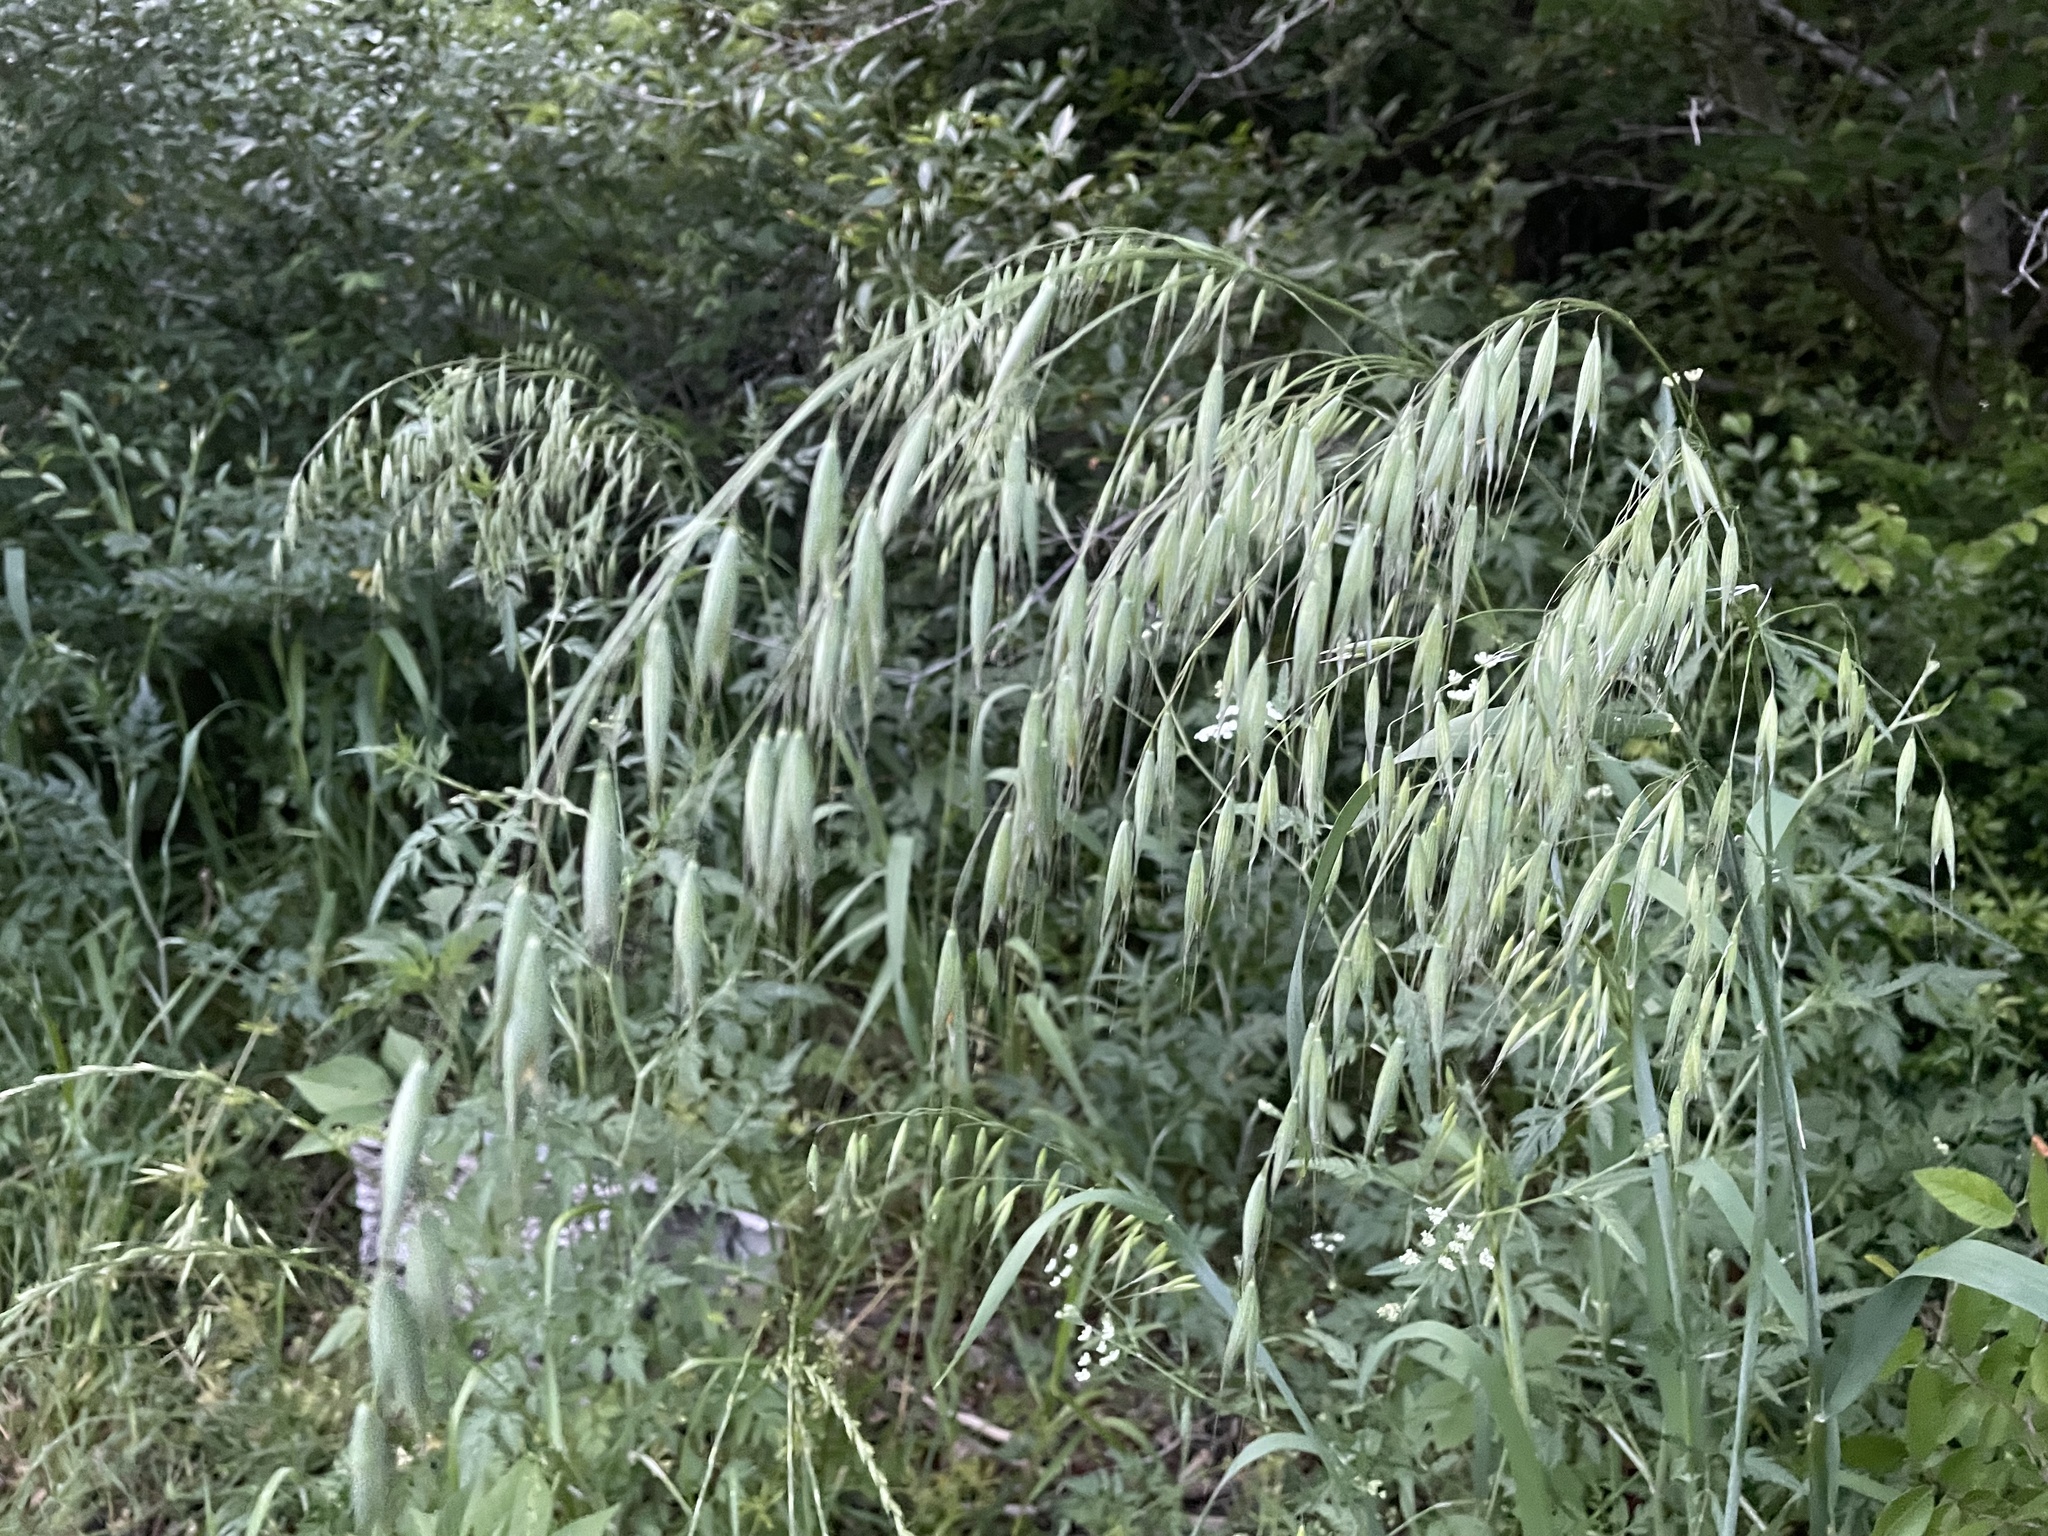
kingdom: Plantae
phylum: Tracheophyta
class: Liliopsida
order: Poales
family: Poaceae
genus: Avena
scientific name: Avena fatua
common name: Wild oat
